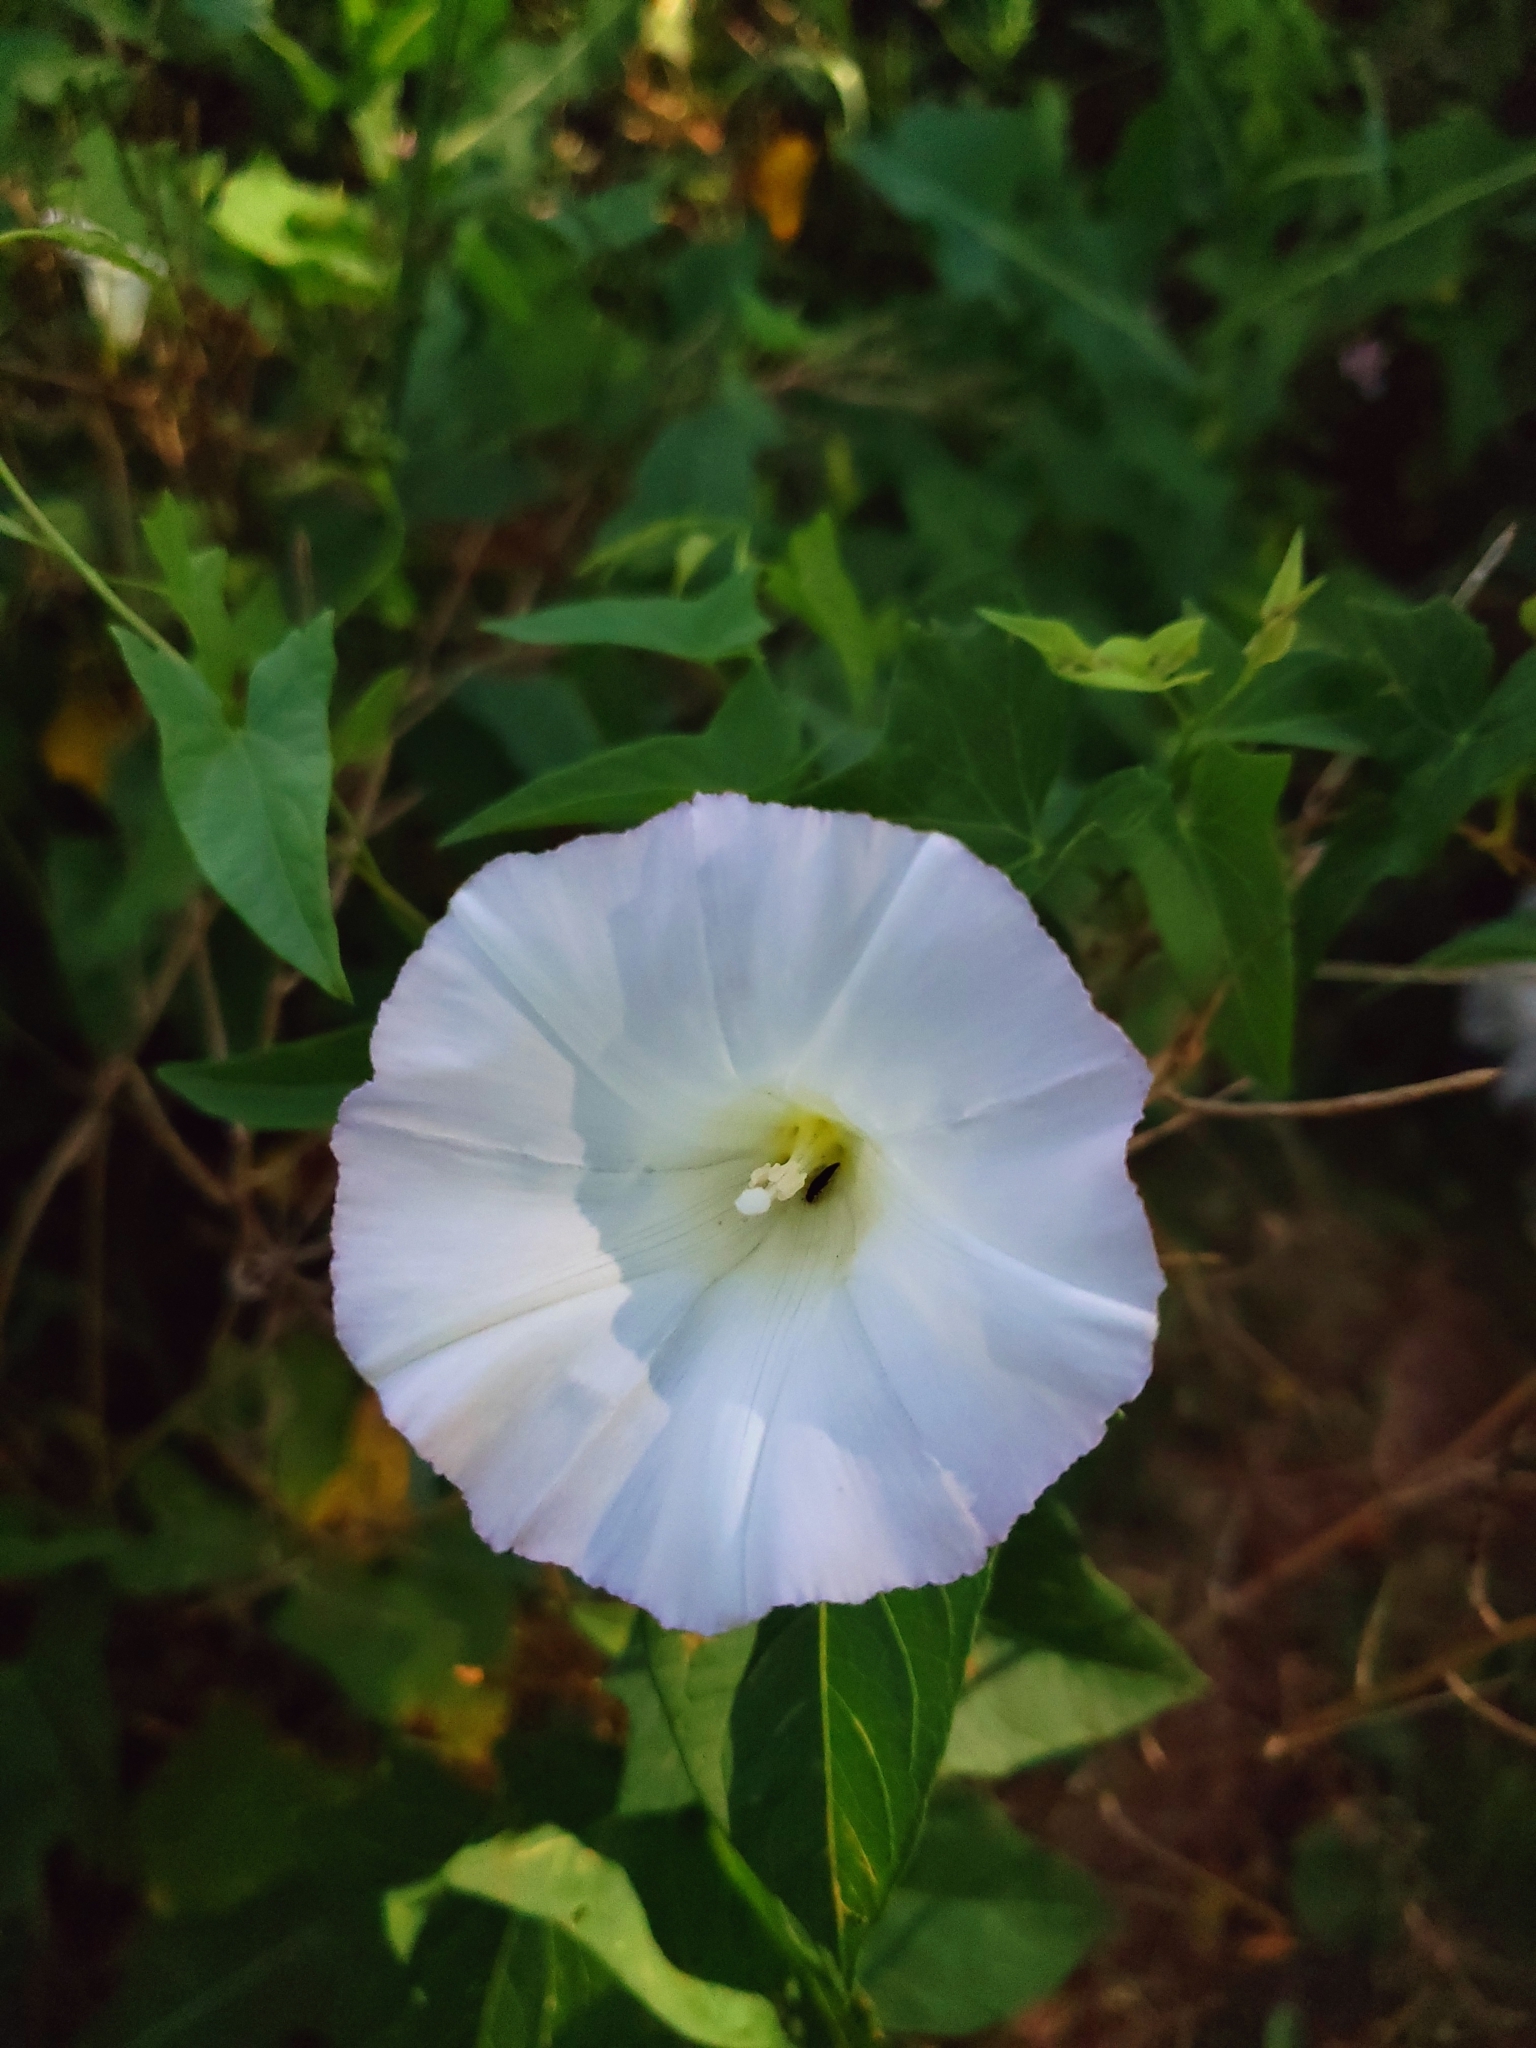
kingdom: Plantae
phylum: Tracheophyta
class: Magnoliopsida
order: Solanales
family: Convolvulaceae
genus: Calystegia
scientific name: Calystegia sepium
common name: Hedge bindweed
